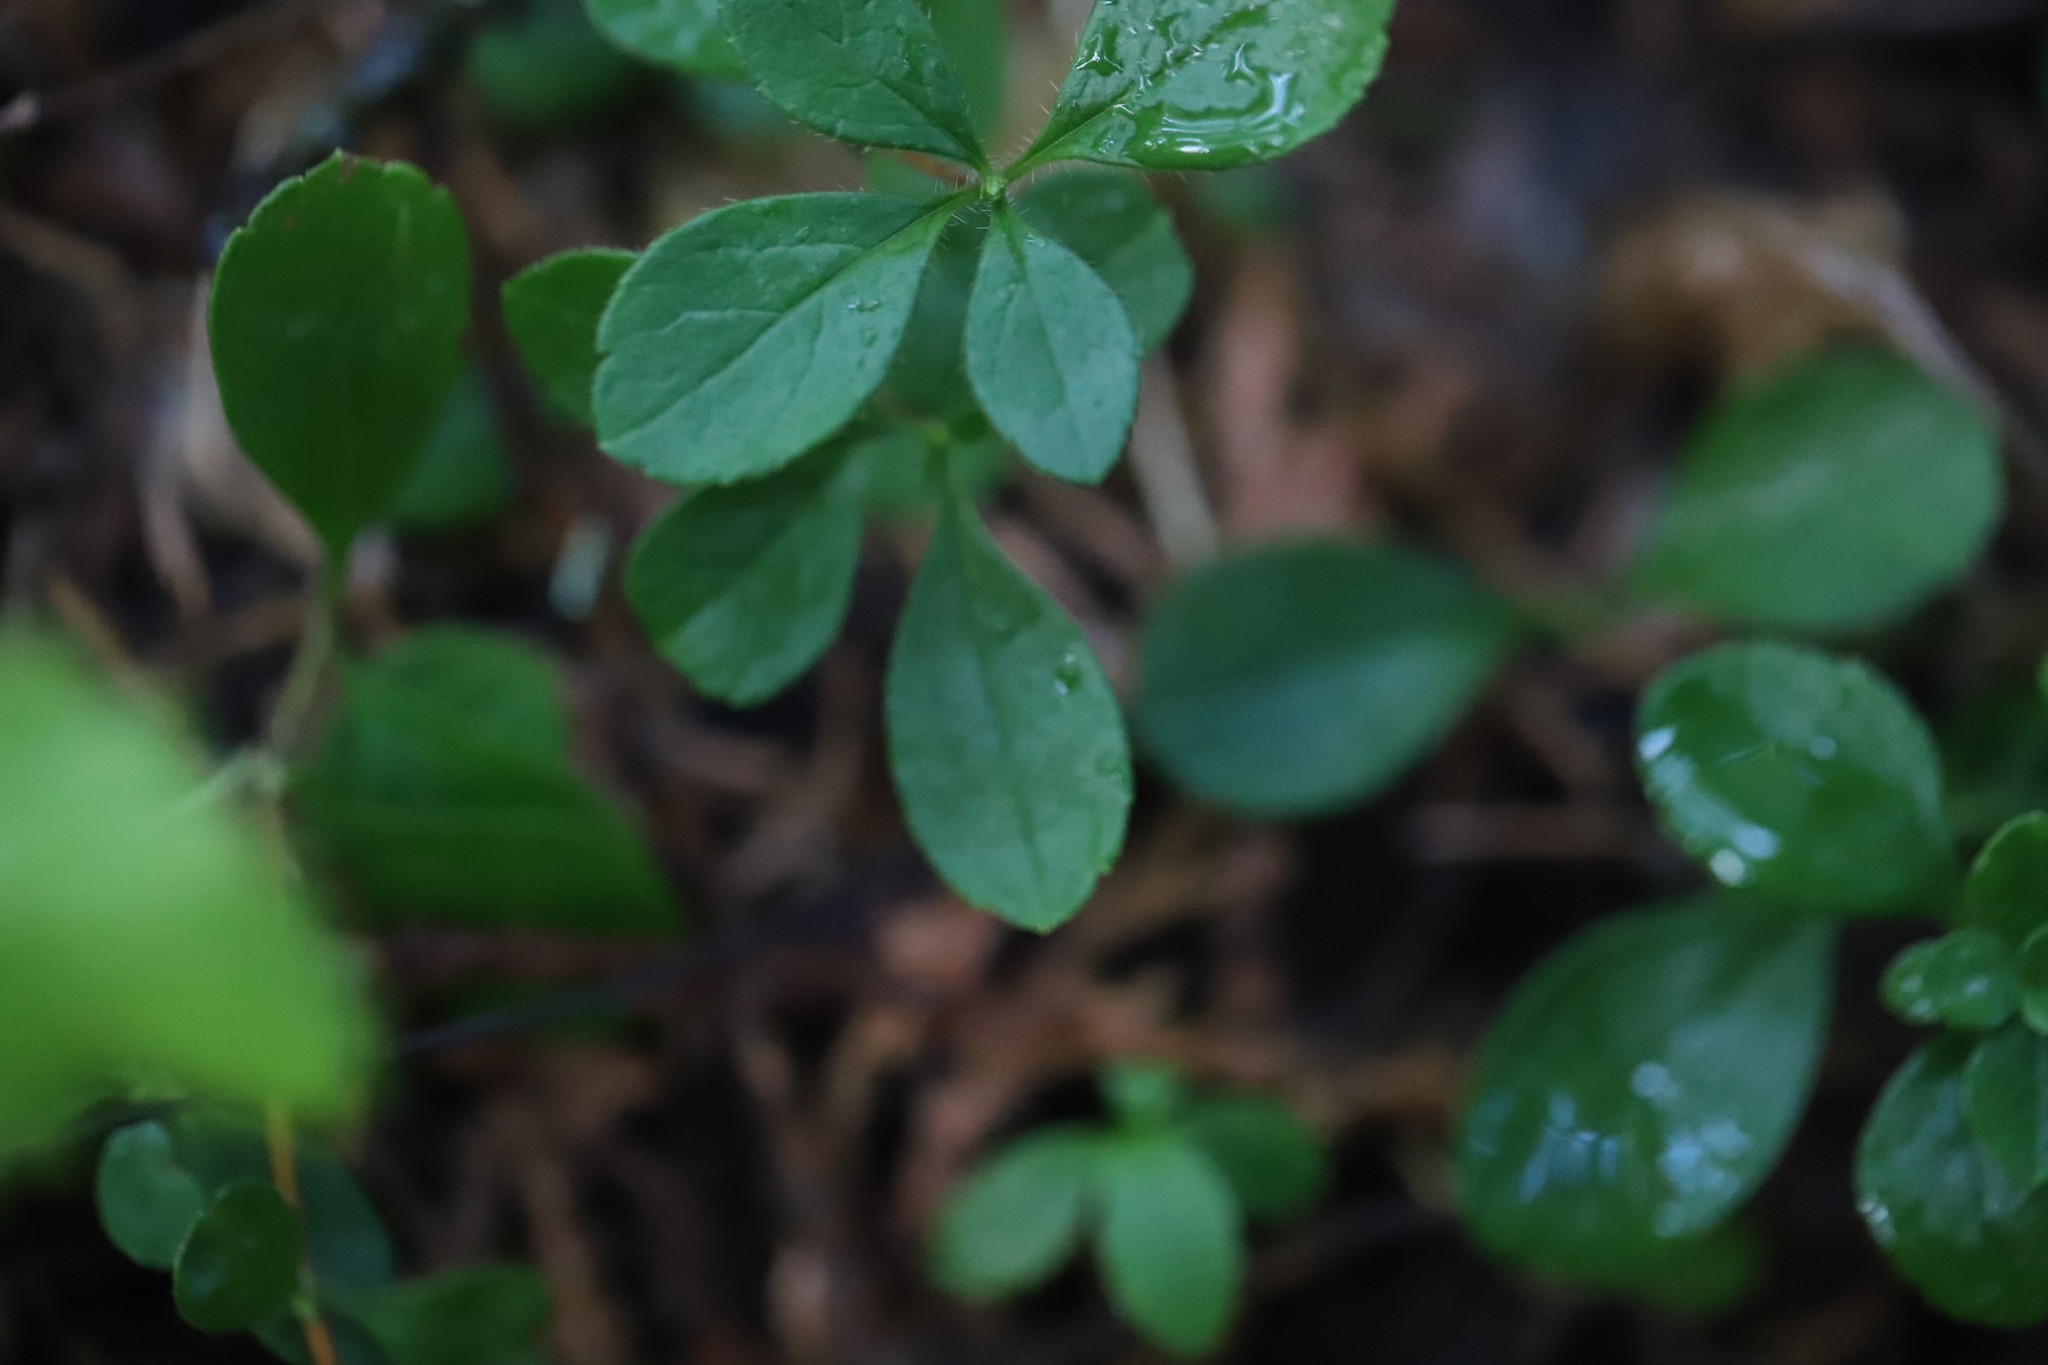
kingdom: Plantae
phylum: Tracheophyta
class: Magnoliopsida
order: Dipsacales
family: Caprifoliaceae
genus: Linnaea
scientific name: Linnaea borealis
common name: Twinflower
